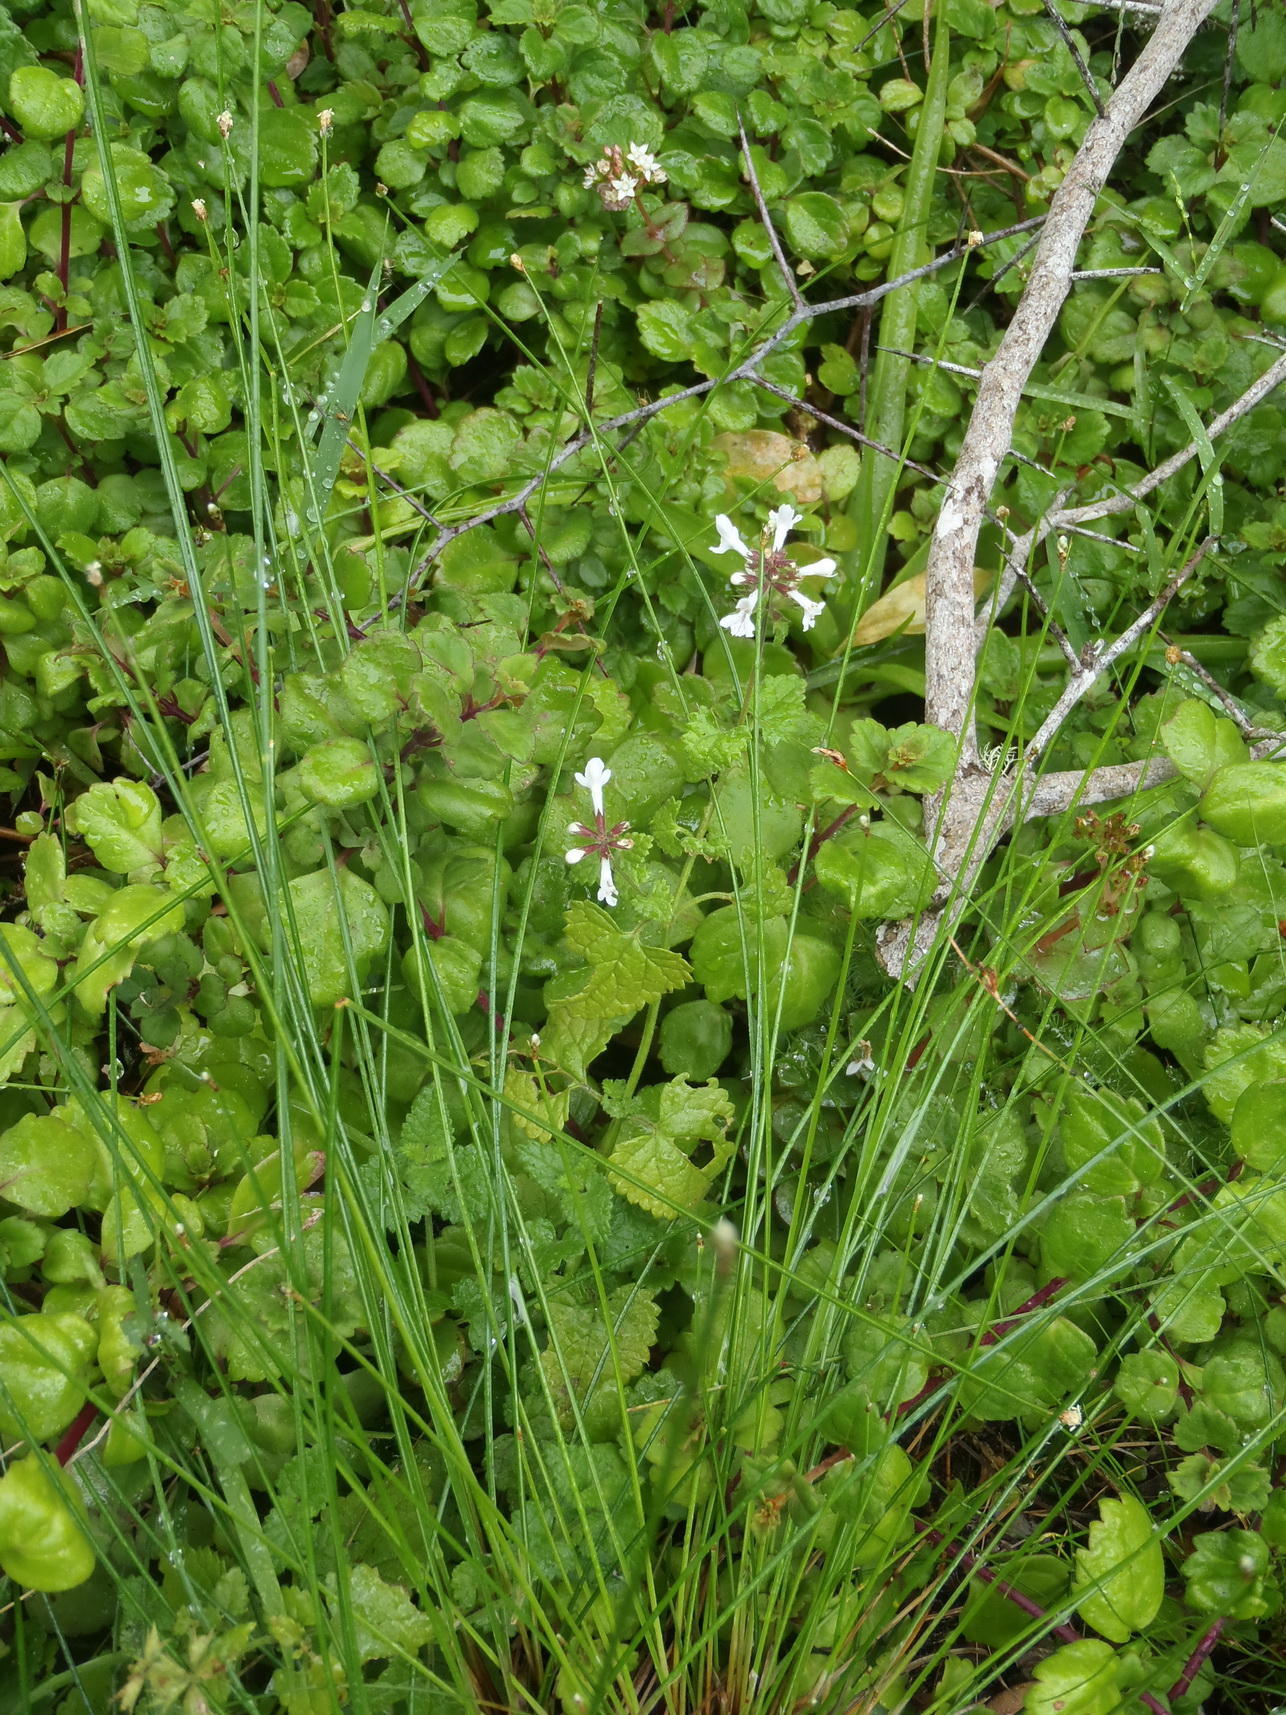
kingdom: Plantae
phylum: Tracheophyta
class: Magnoliopsida
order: Lamiales
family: Lamiaceae
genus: Stachys
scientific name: Stachys aethiopica
